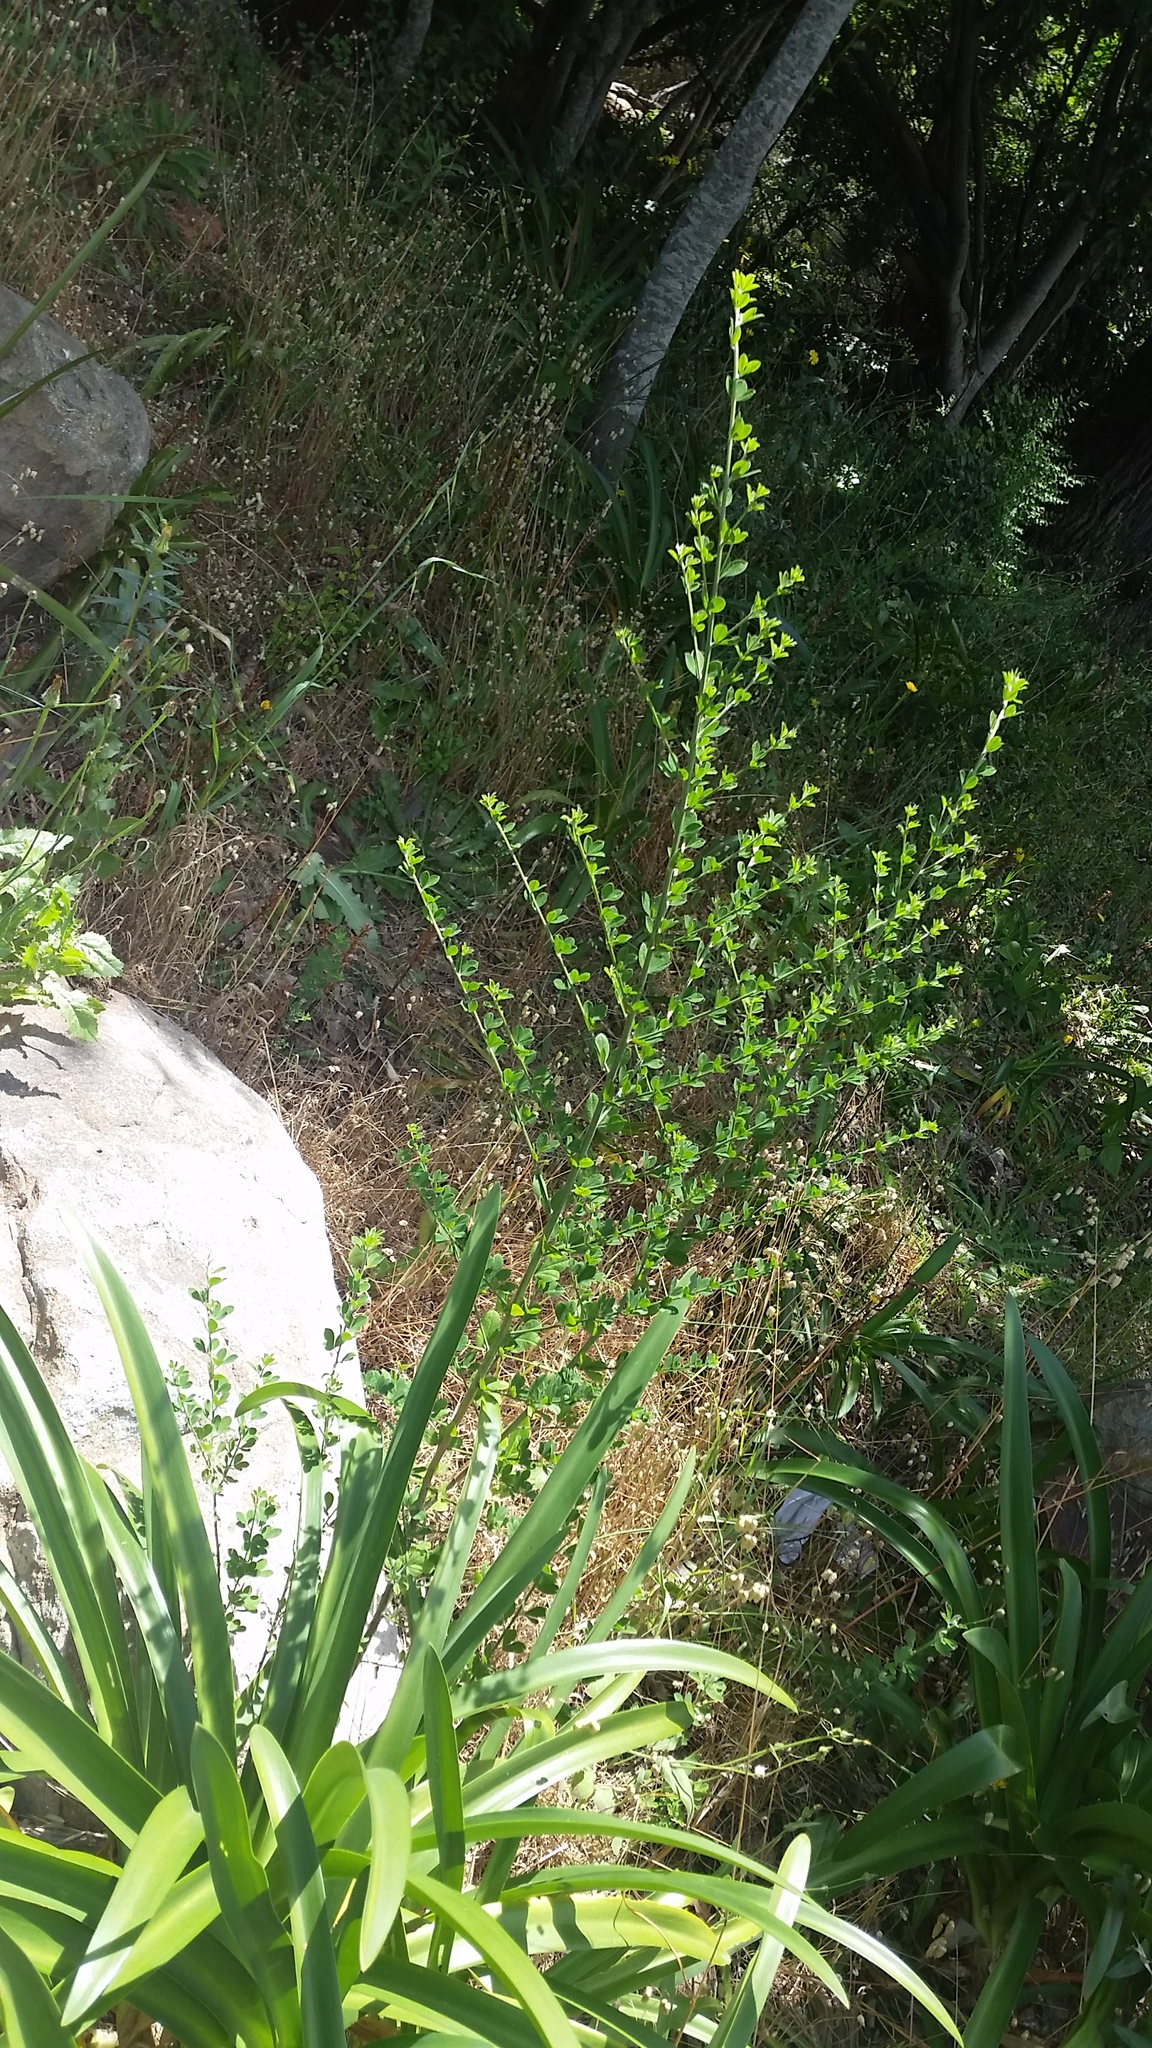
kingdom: Plantae
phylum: Tracheophyta
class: Magnoliopsida
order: Fabales
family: Fabaceae
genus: Genista
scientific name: Genista monspessulana
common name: Montpellier broom
